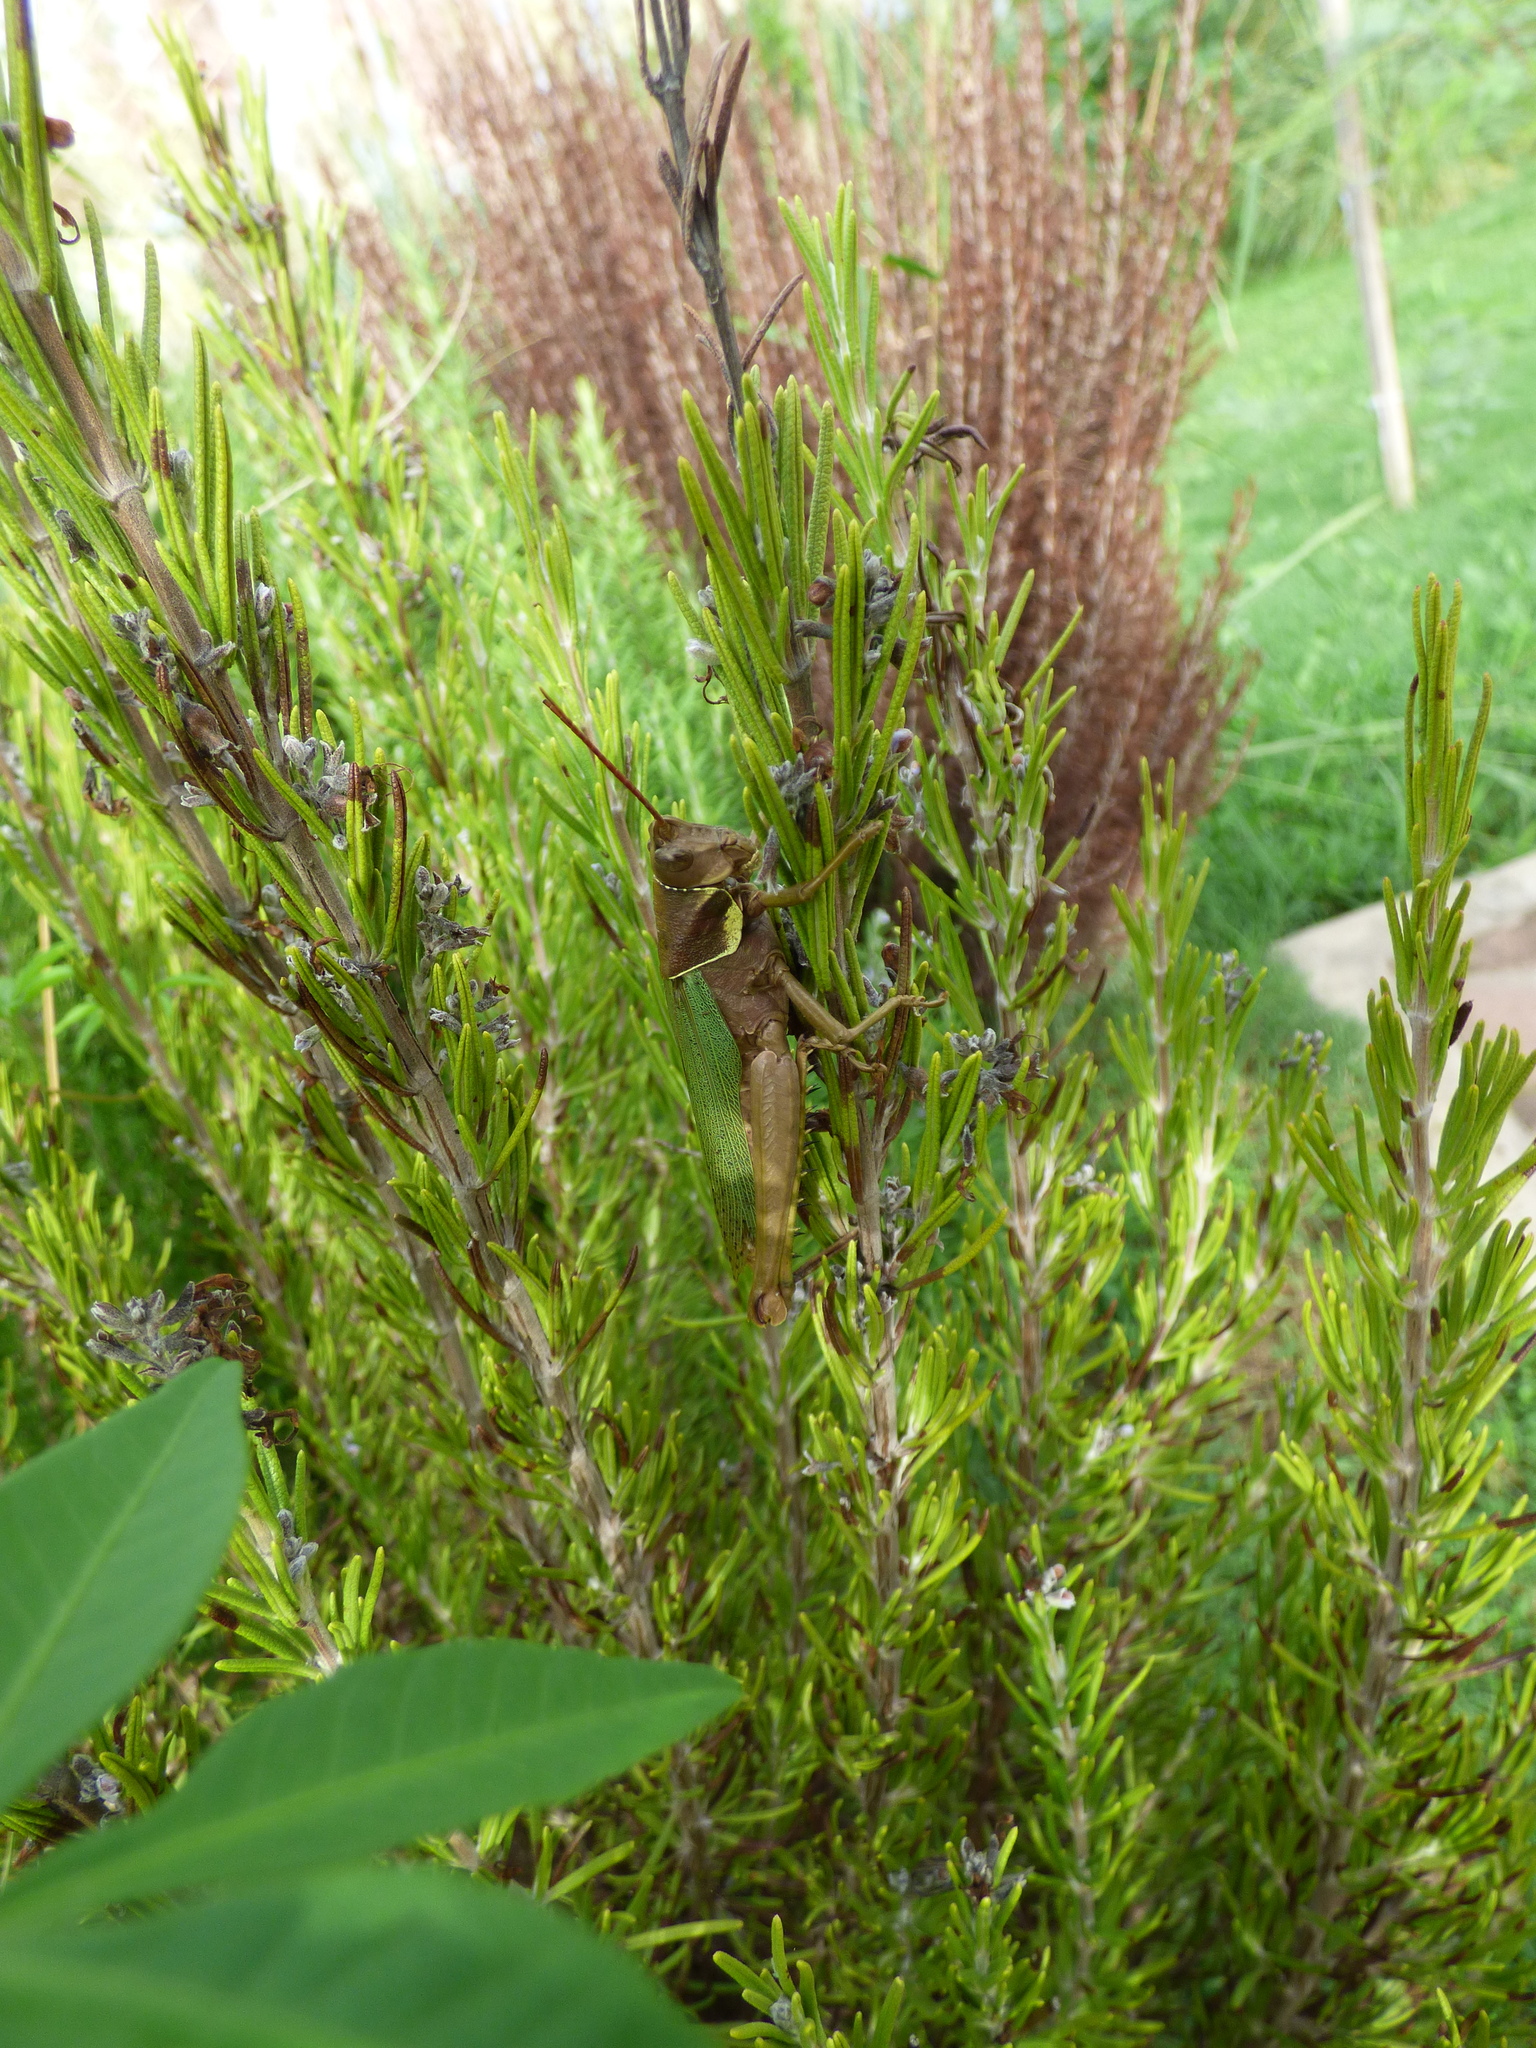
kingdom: Animalia
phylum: Arthropoda
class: Insecta
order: Orthoptera
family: Romaleidae
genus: Coryacris
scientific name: Coryacris angustipennis
